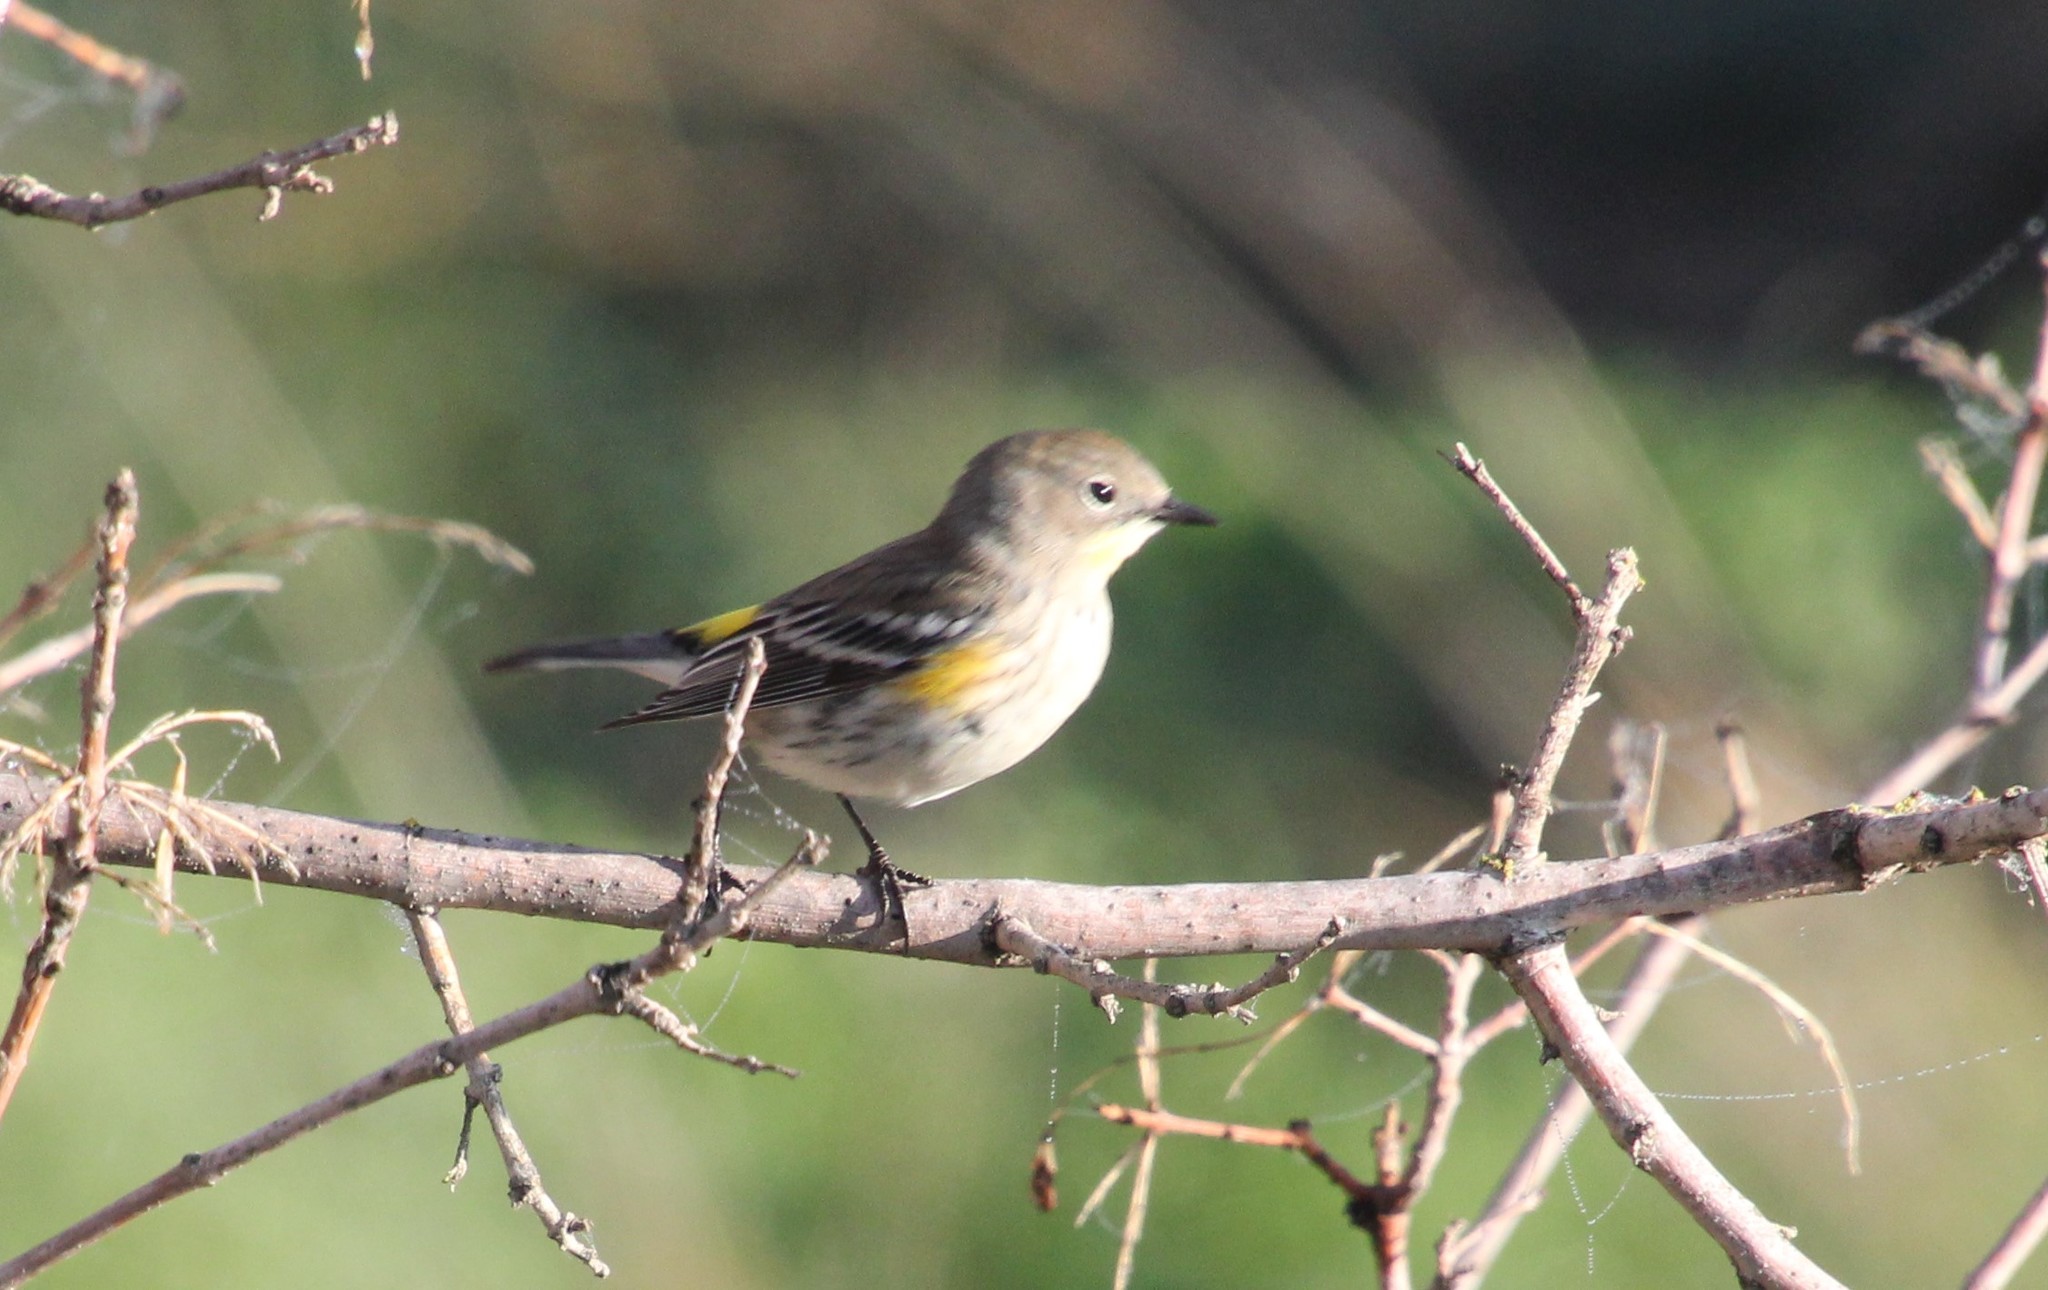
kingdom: Animalia
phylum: Chordata
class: Aves
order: Passeriformes
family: Parulidae
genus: Setophaga
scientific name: Setophaga auduboni
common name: Audubon's warbler
